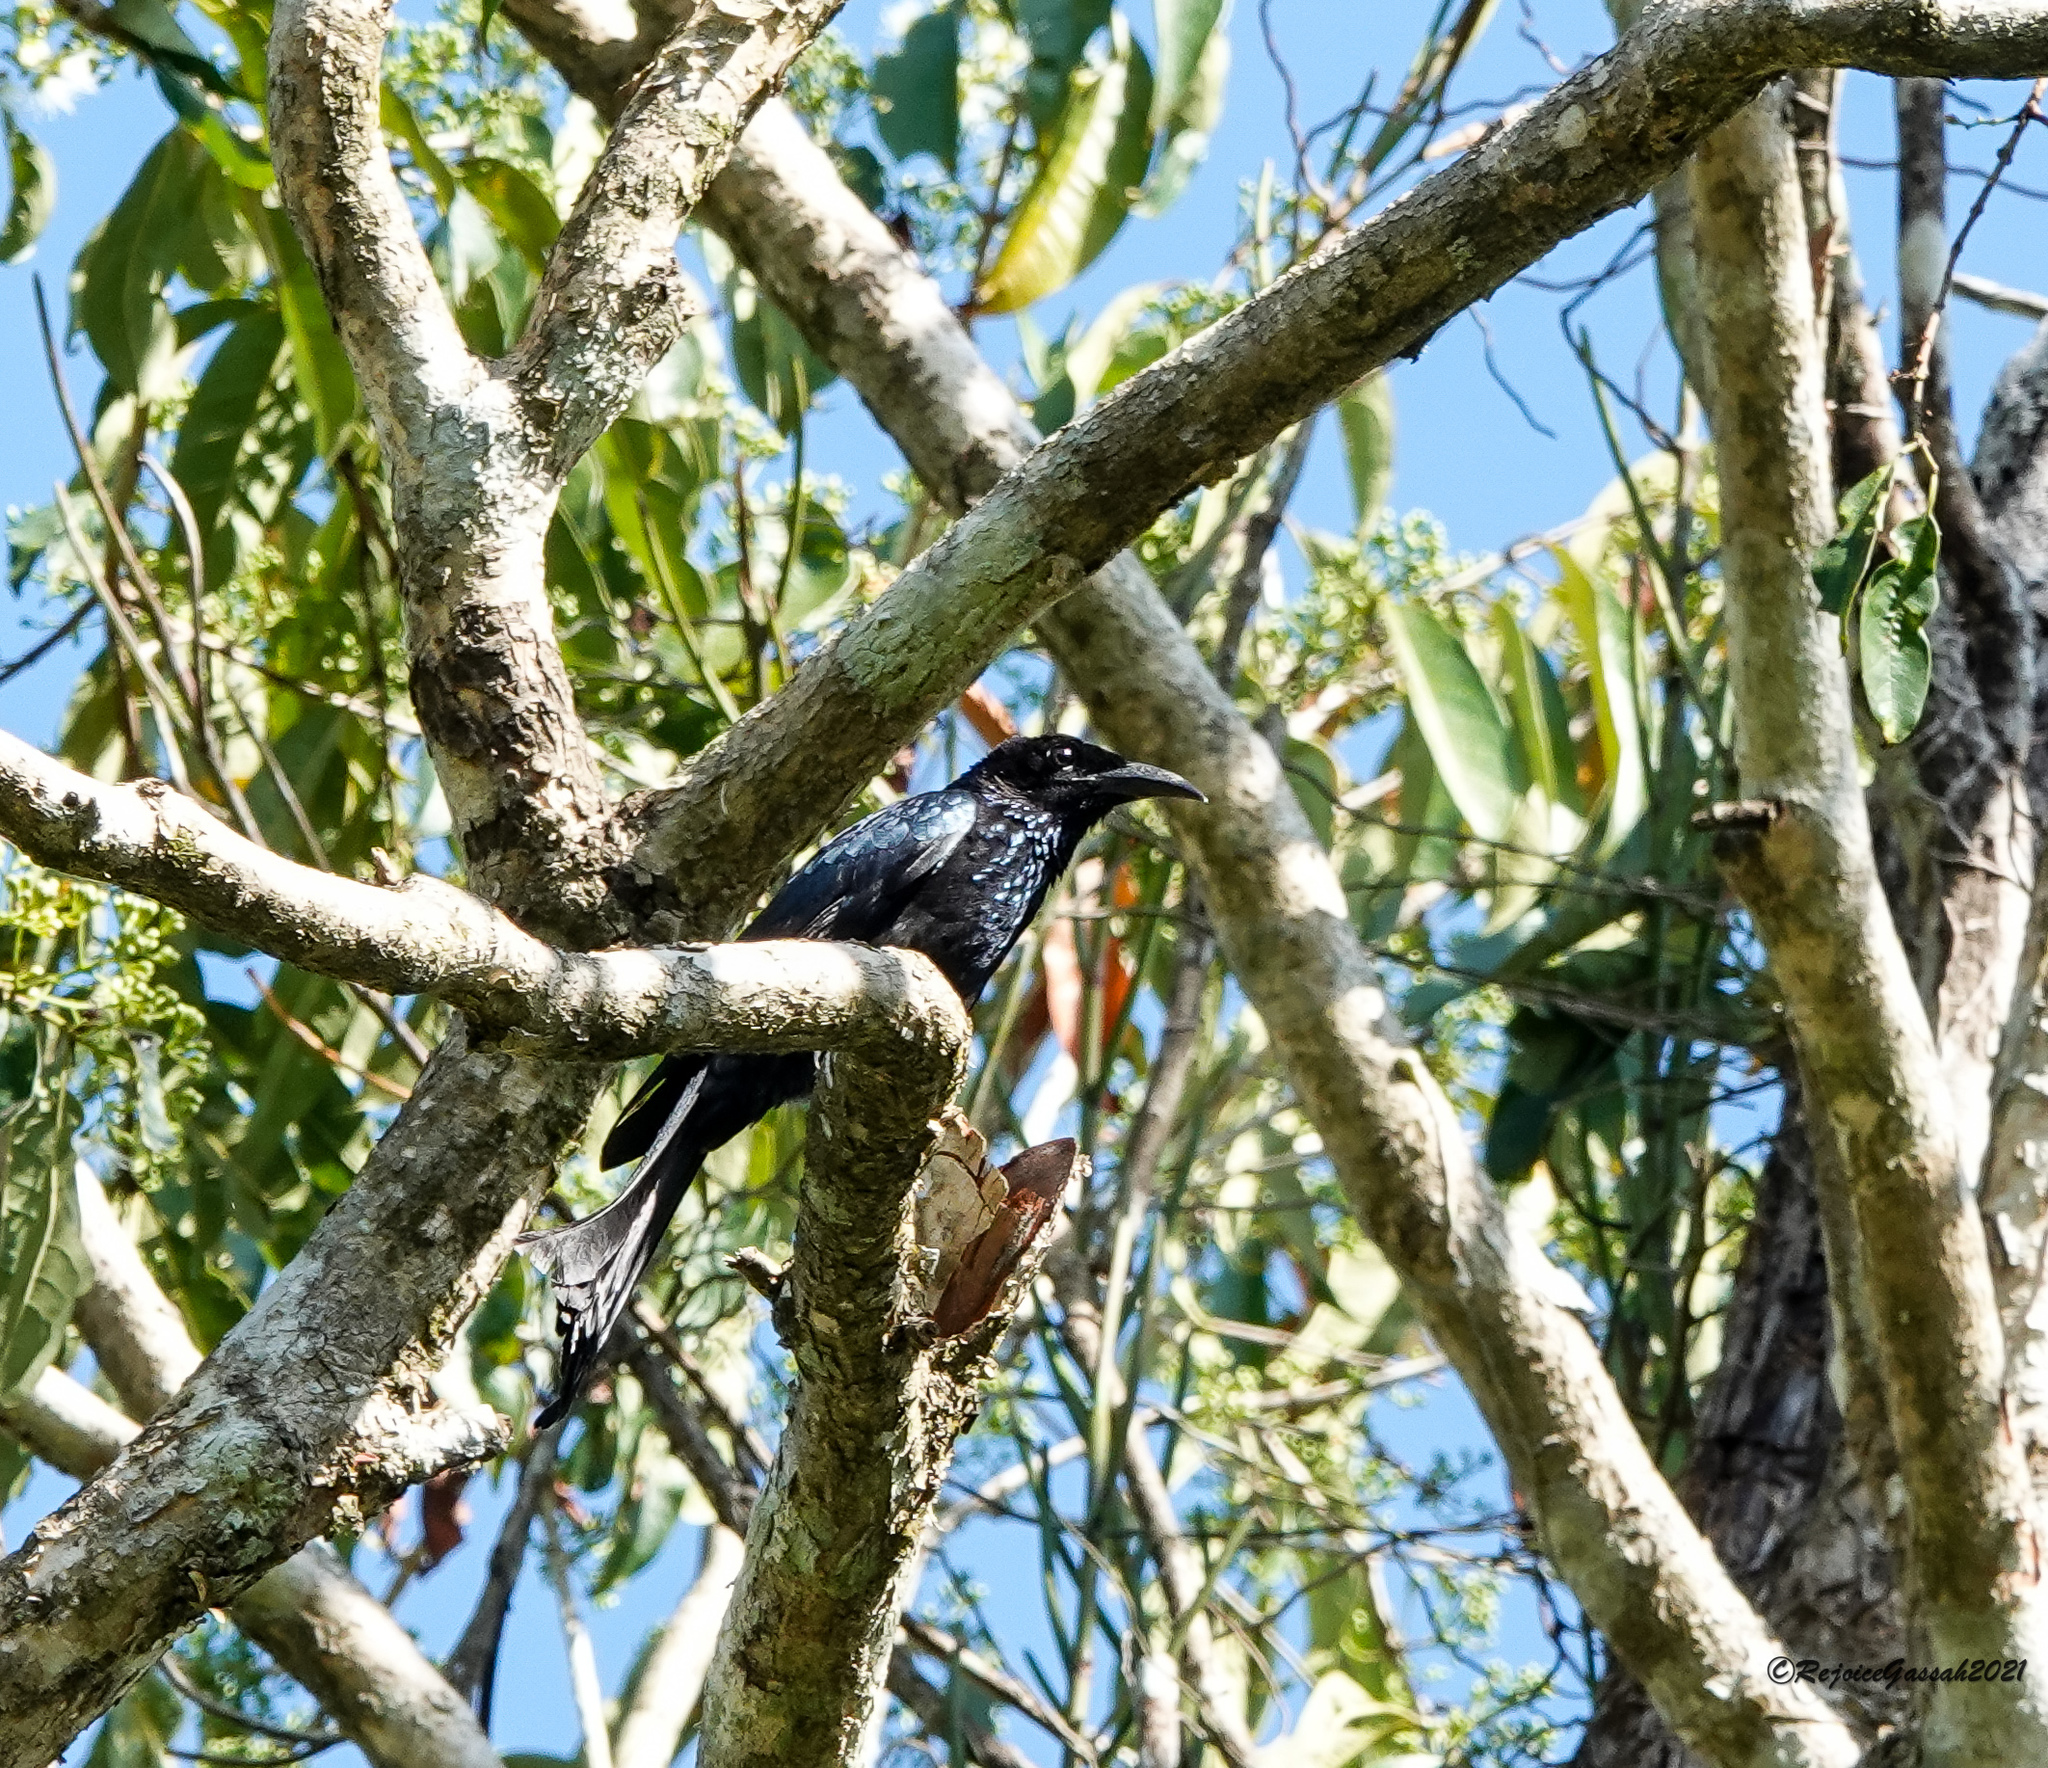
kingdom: Animalia
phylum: Chordata
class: Aves
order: Passeriformes
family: Dicruridae
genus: Dicrurus
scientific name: Dicrurus hottentottus
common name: Hair-crested drongo
